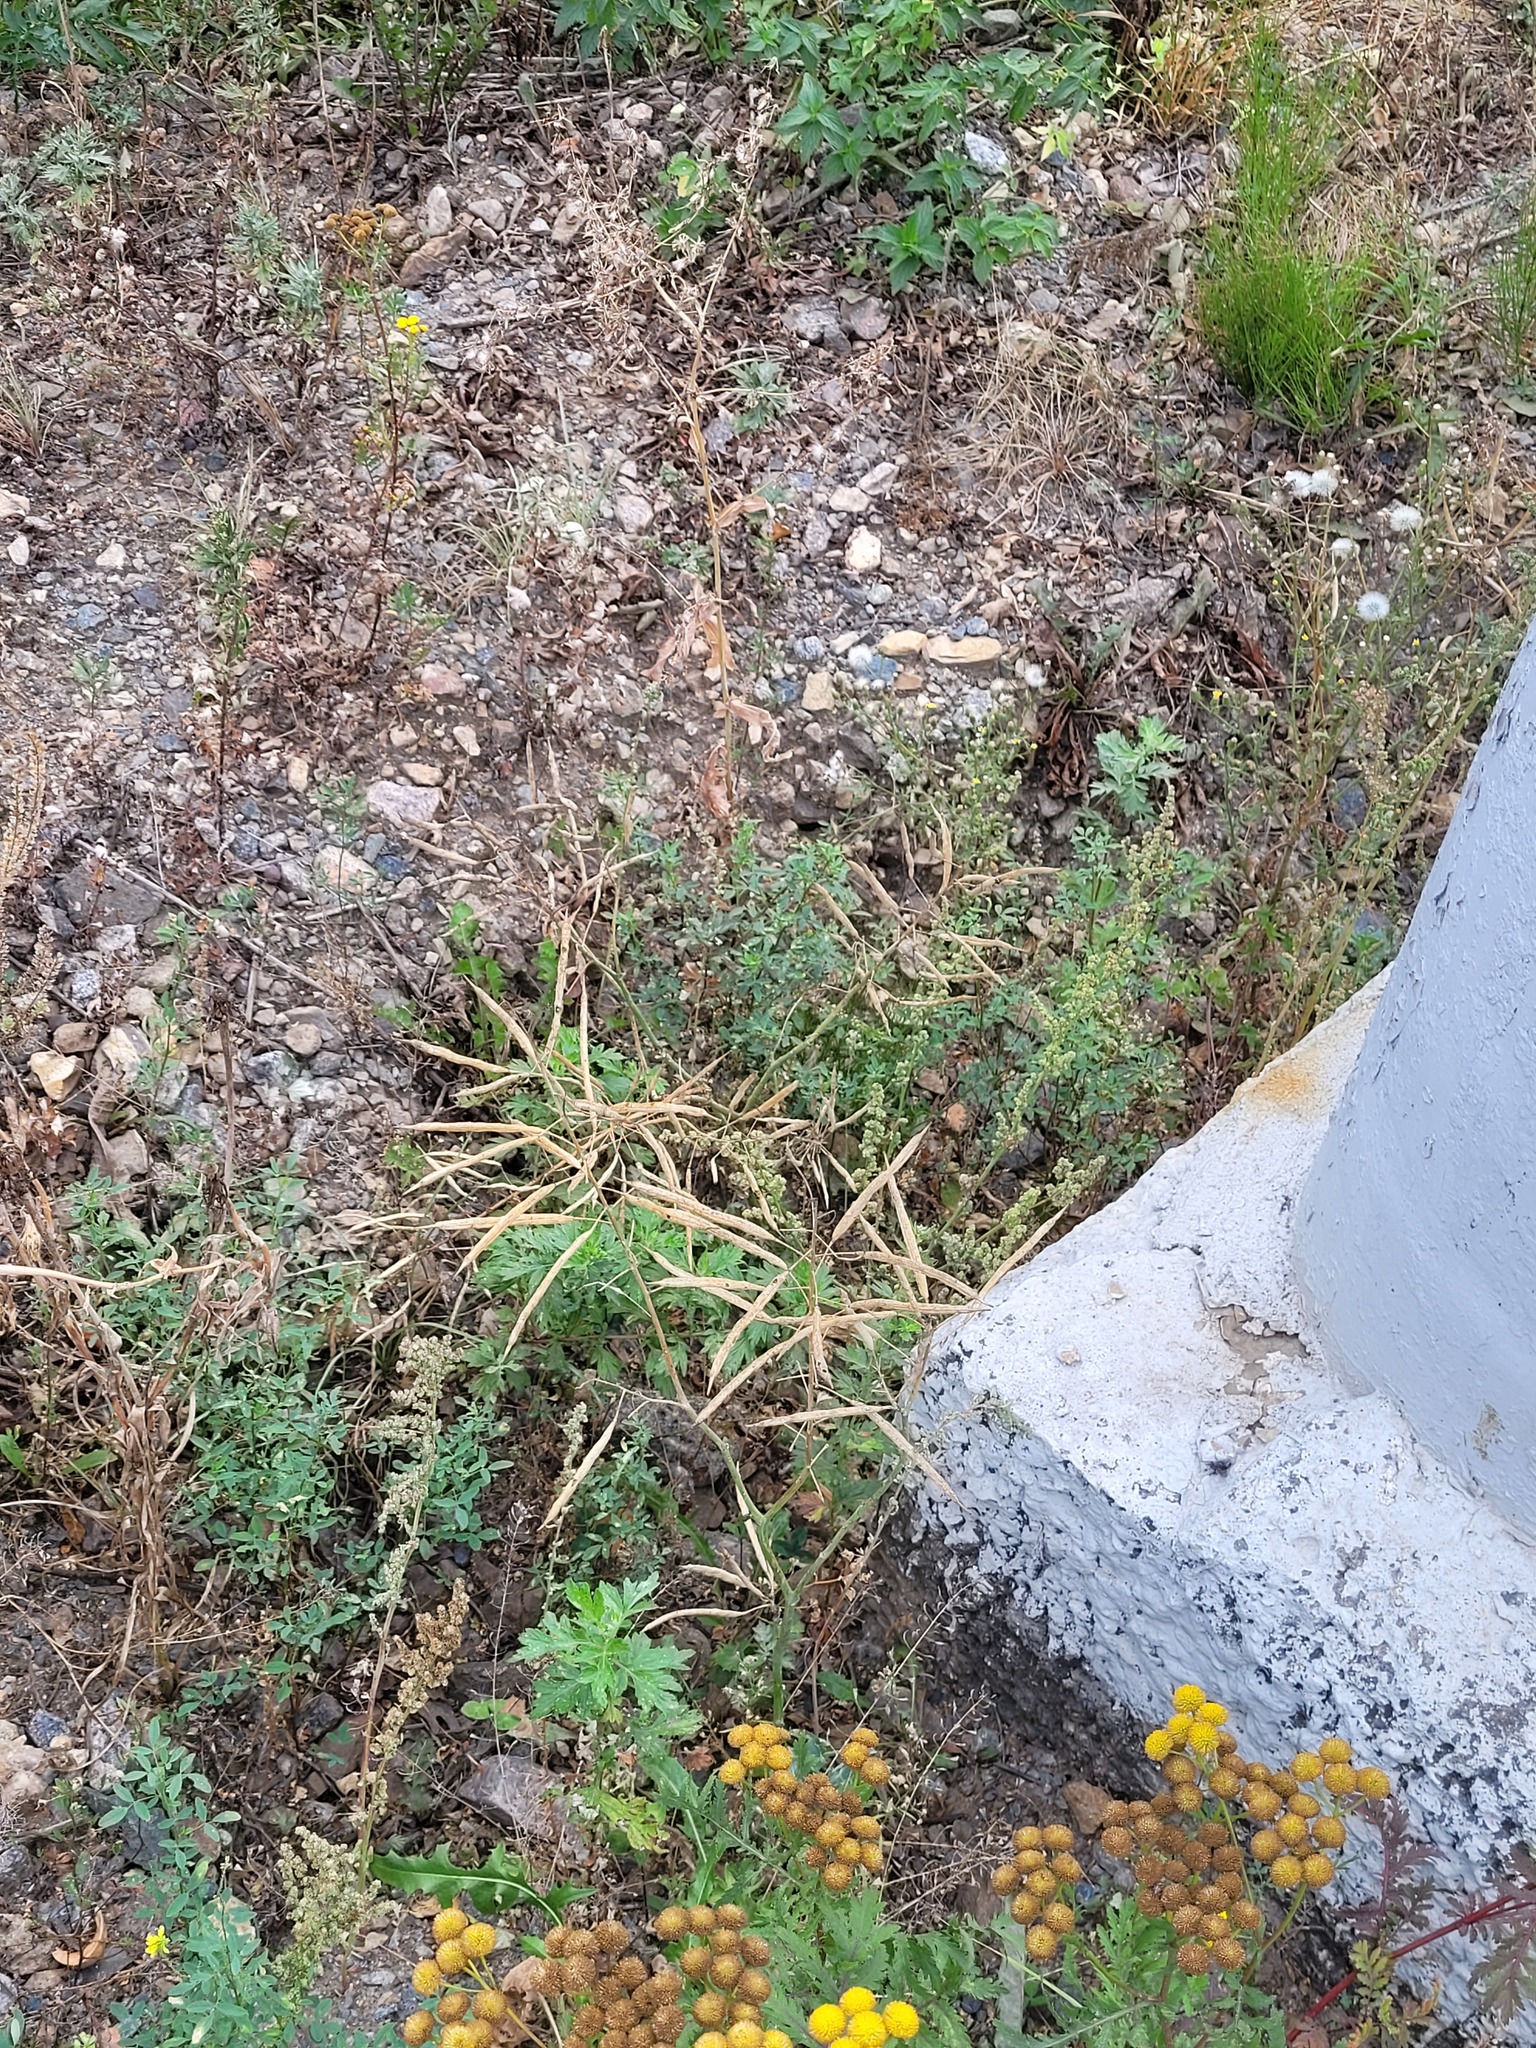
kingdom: Plantae
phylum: Tracheophyta
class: Magnoliopsida
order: Brassicales
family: Brassicaceae
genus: Brassica
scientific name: Brassica napus
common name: Rape
